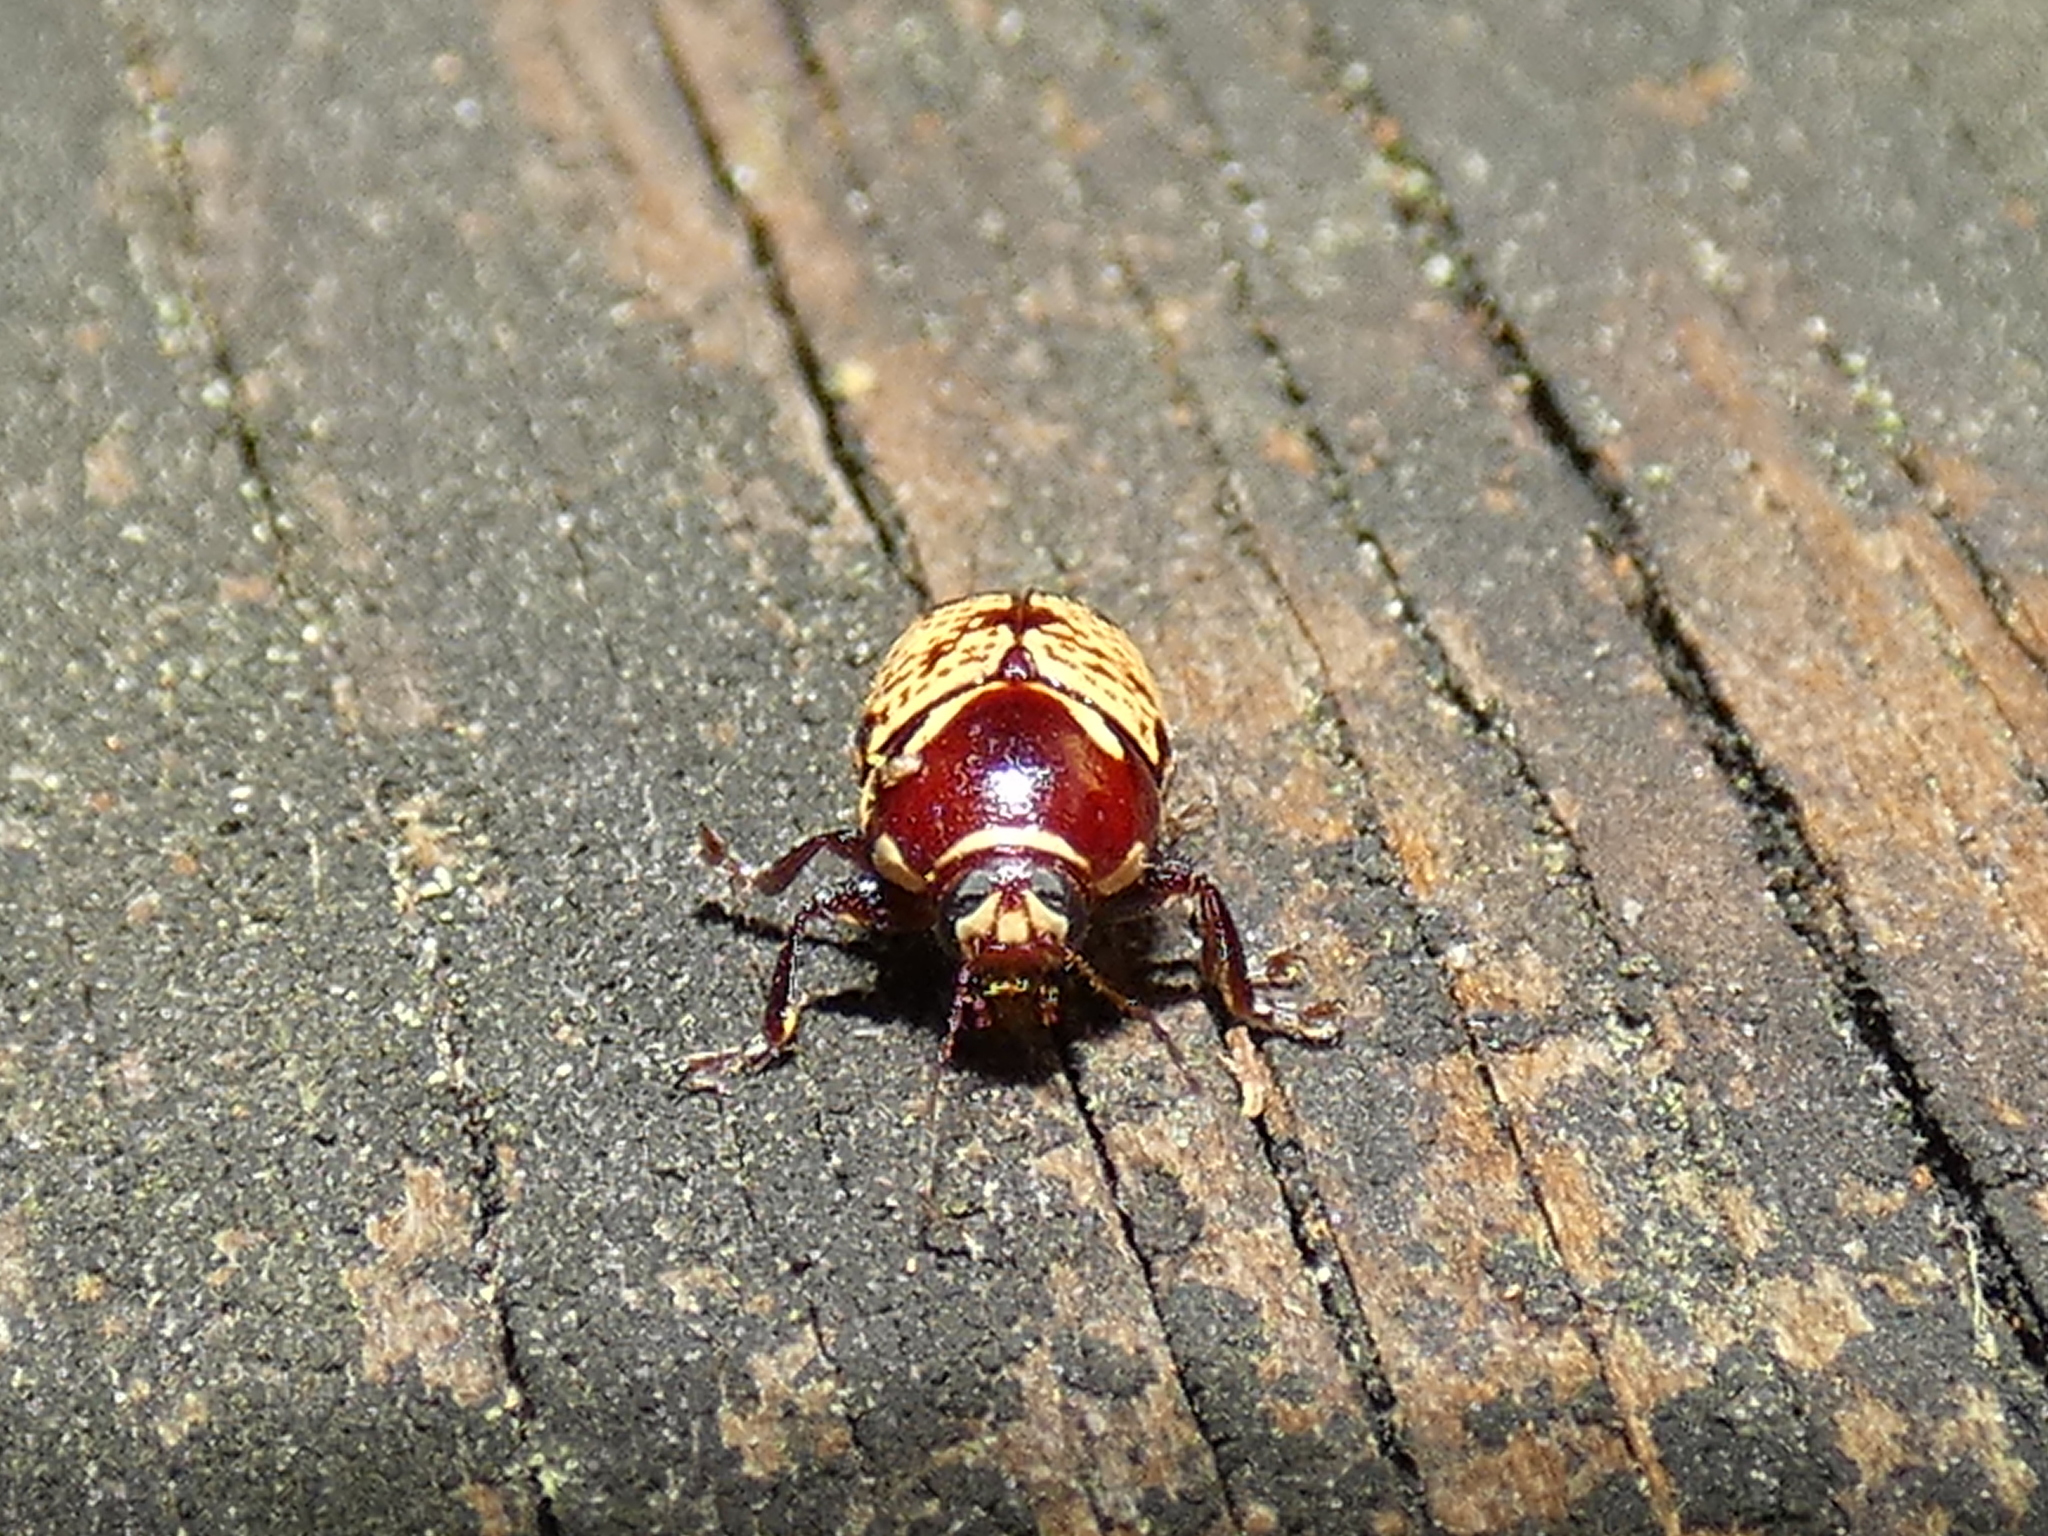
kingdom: Animalia
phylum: Arthropoda
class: Insecta
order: Coleoptera
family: Chrysomelidae
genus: Cryptocephalus
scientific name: Cryptocephalus irroratus
